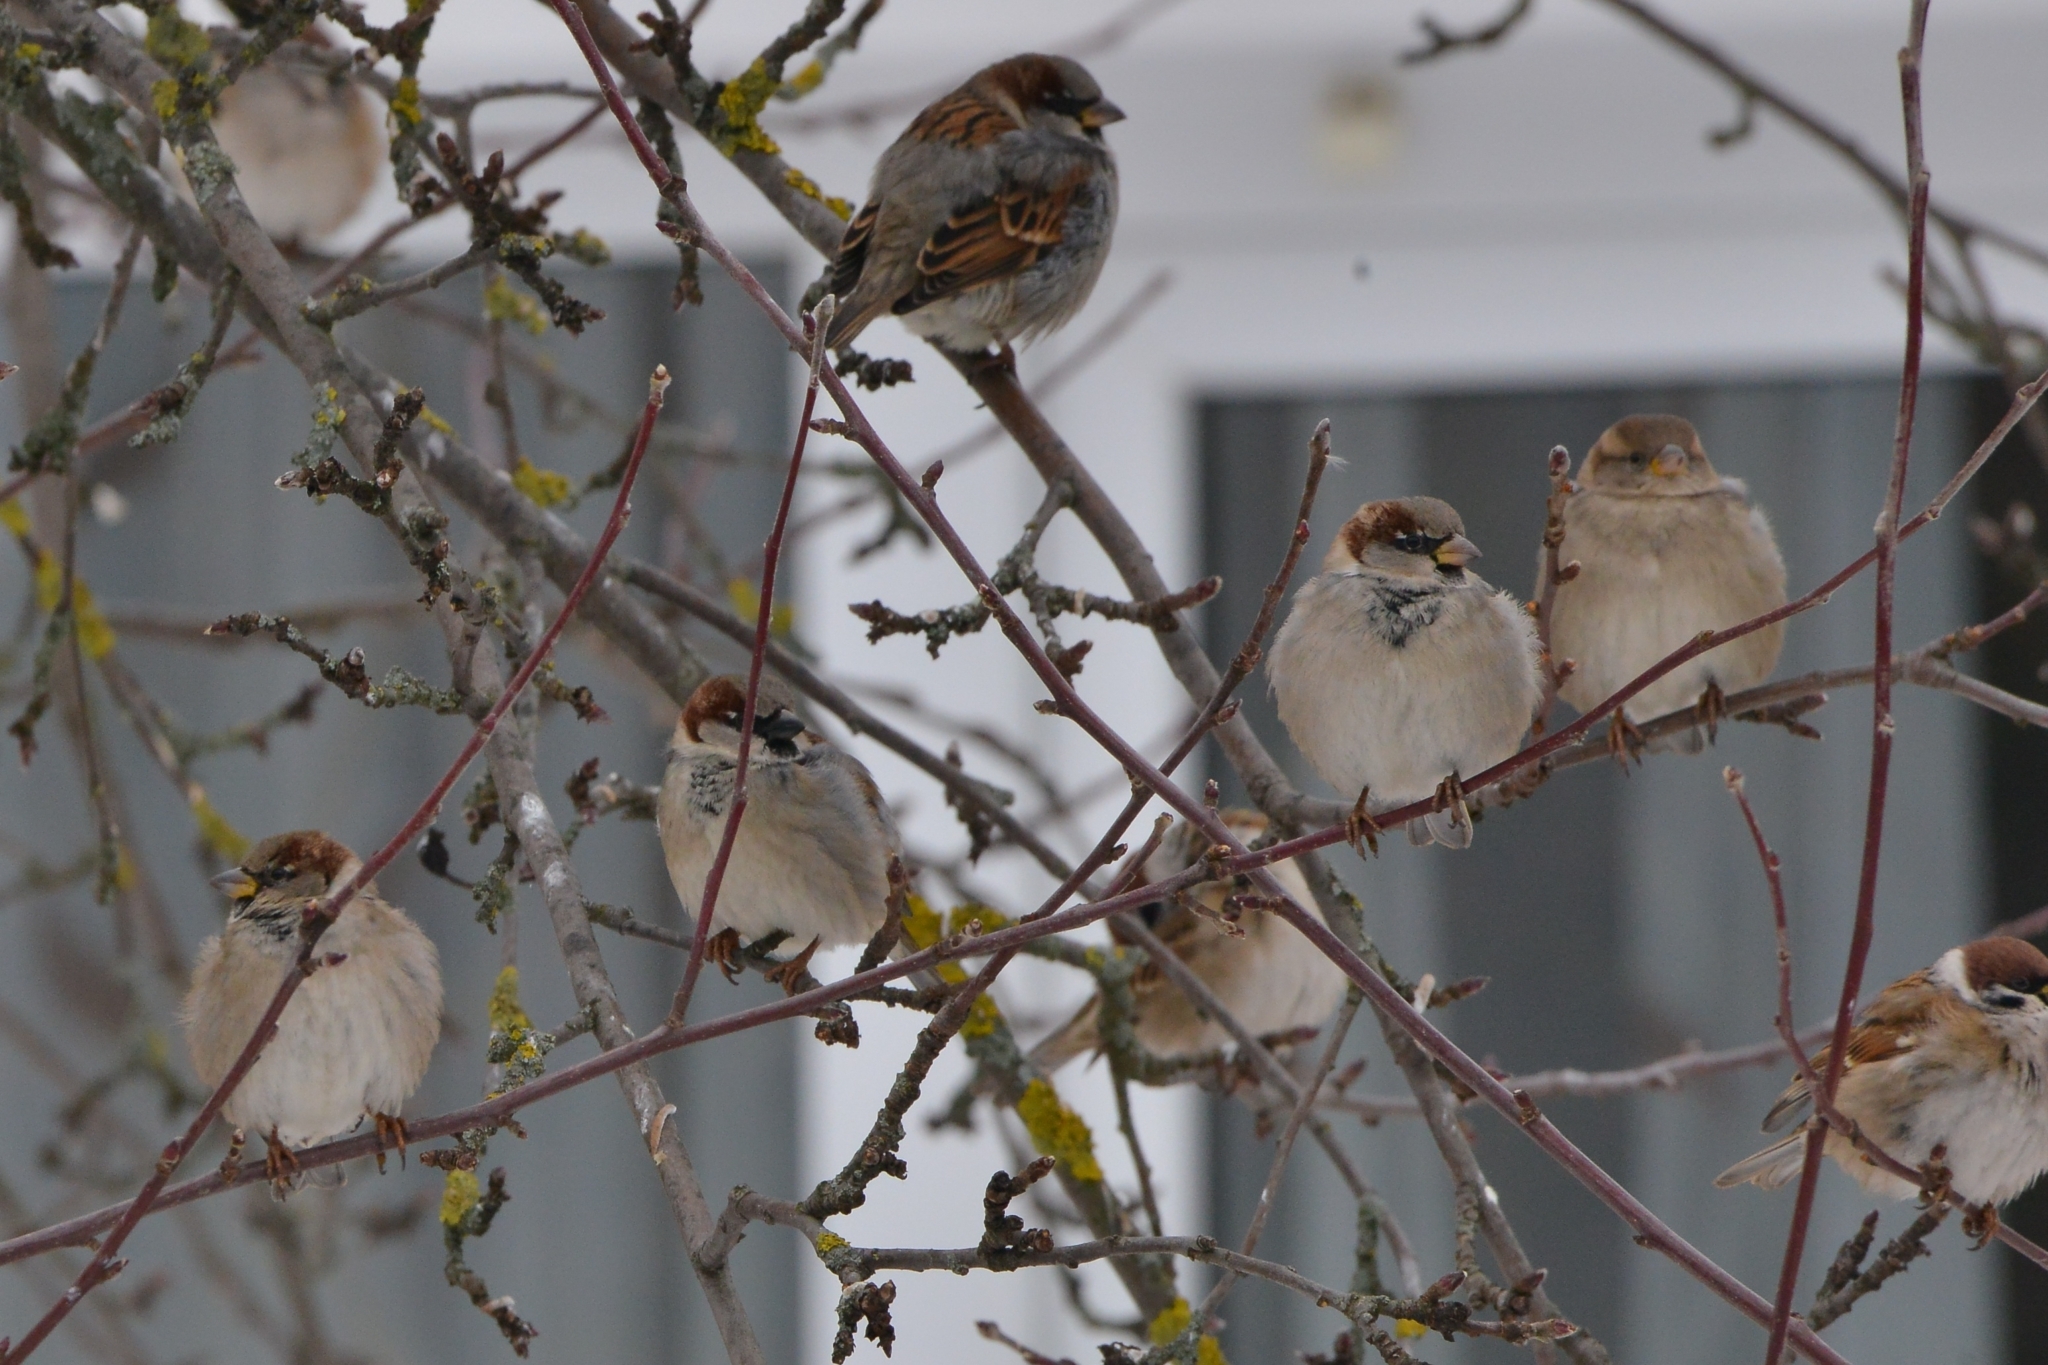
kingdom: Animalia
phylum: Chordata
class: Aves
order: Passeriformes
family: Passeridae
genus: Passer
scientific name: Passer domesticus
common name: House sparrow
